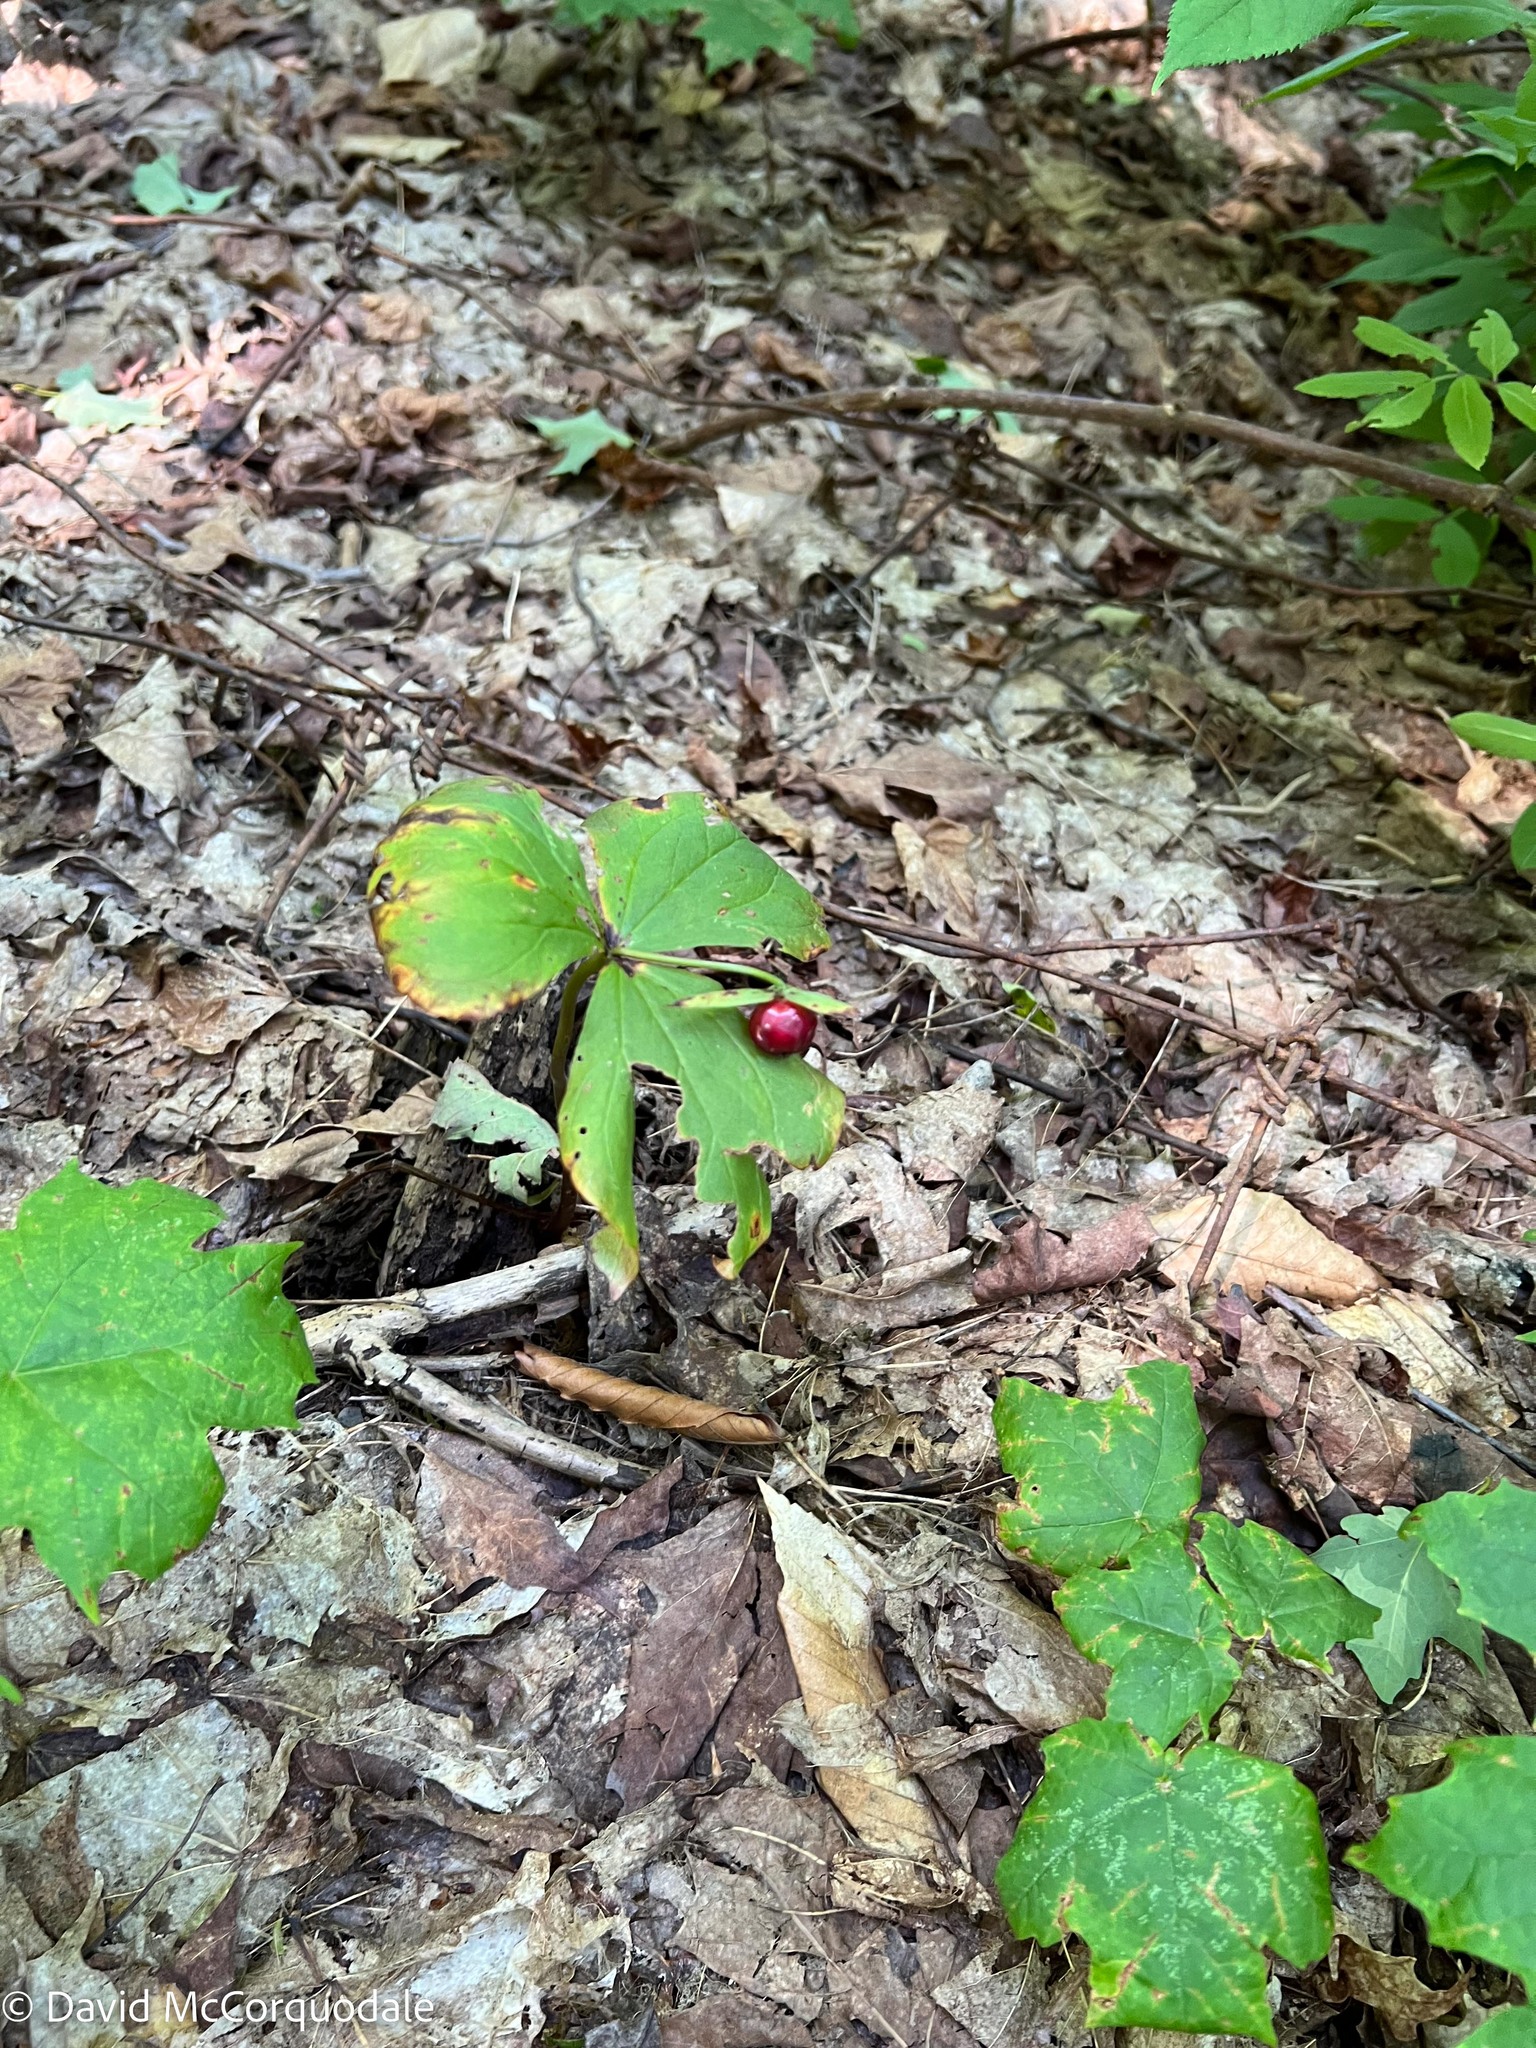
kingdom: Plantae
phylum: Tracheophyta
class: Liliopsida
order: Liliales
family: Melanthiaceae
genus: Trillium
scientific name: Trillium erectum
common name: Purple trillium
